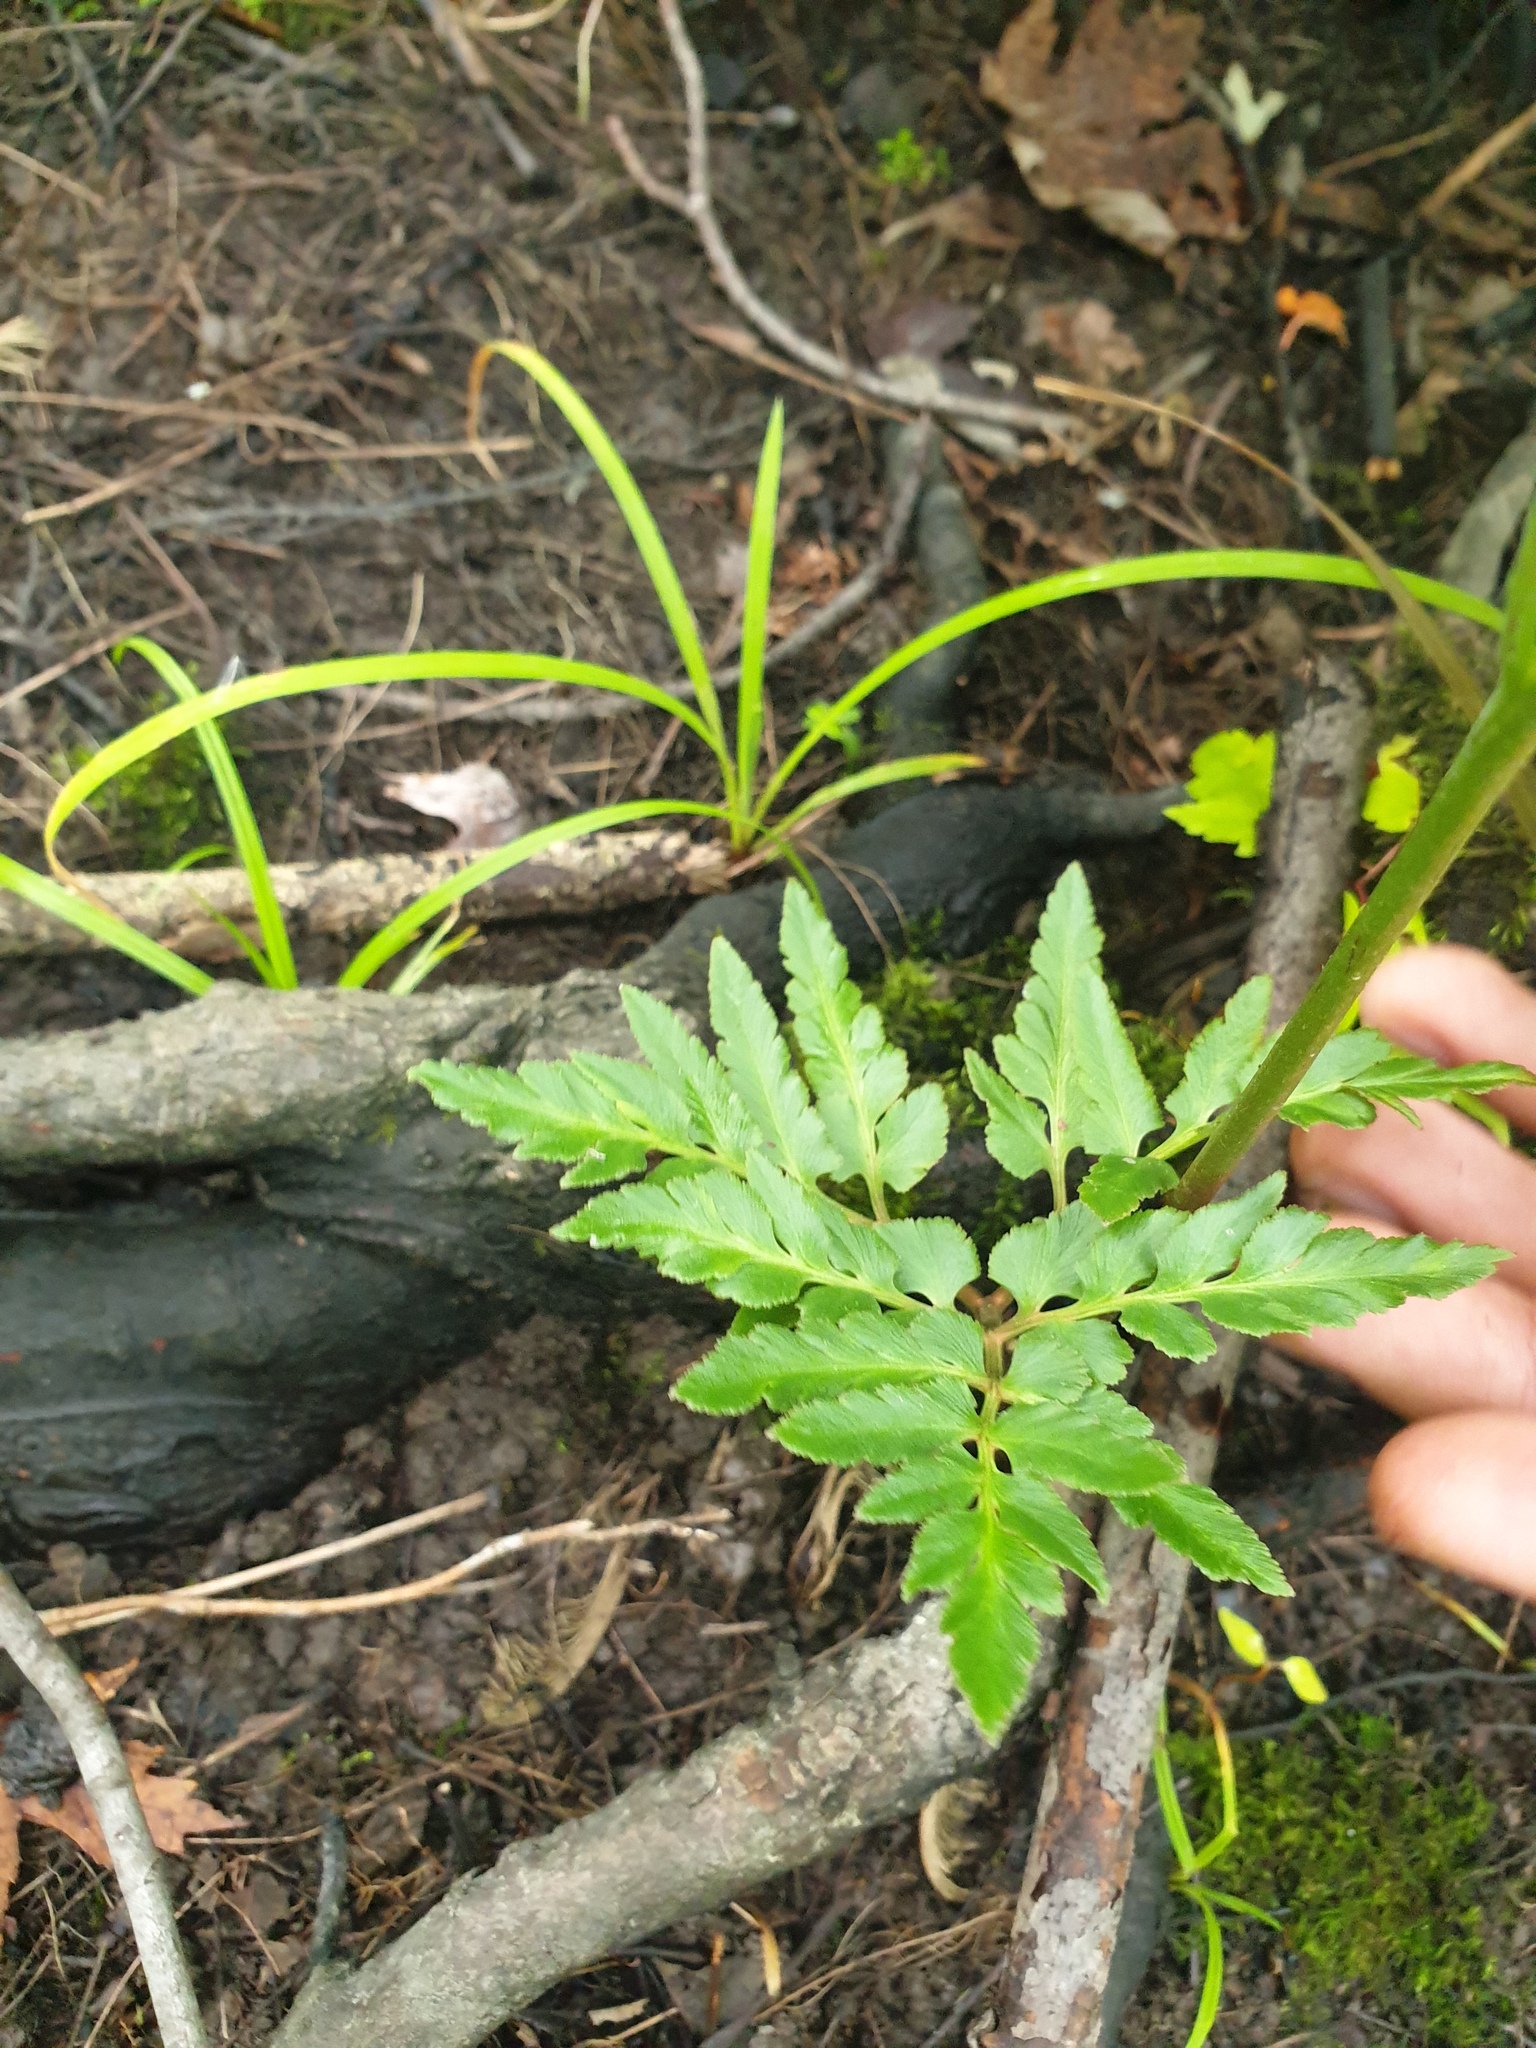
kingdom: Plantae
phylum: Tracheophyta
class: Polypodiopsida
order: Ophioglossales
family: Ophioglossaceae
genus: Sceptridium
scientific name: Sceptridium dissectum
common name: Cut-leaved grapefern
